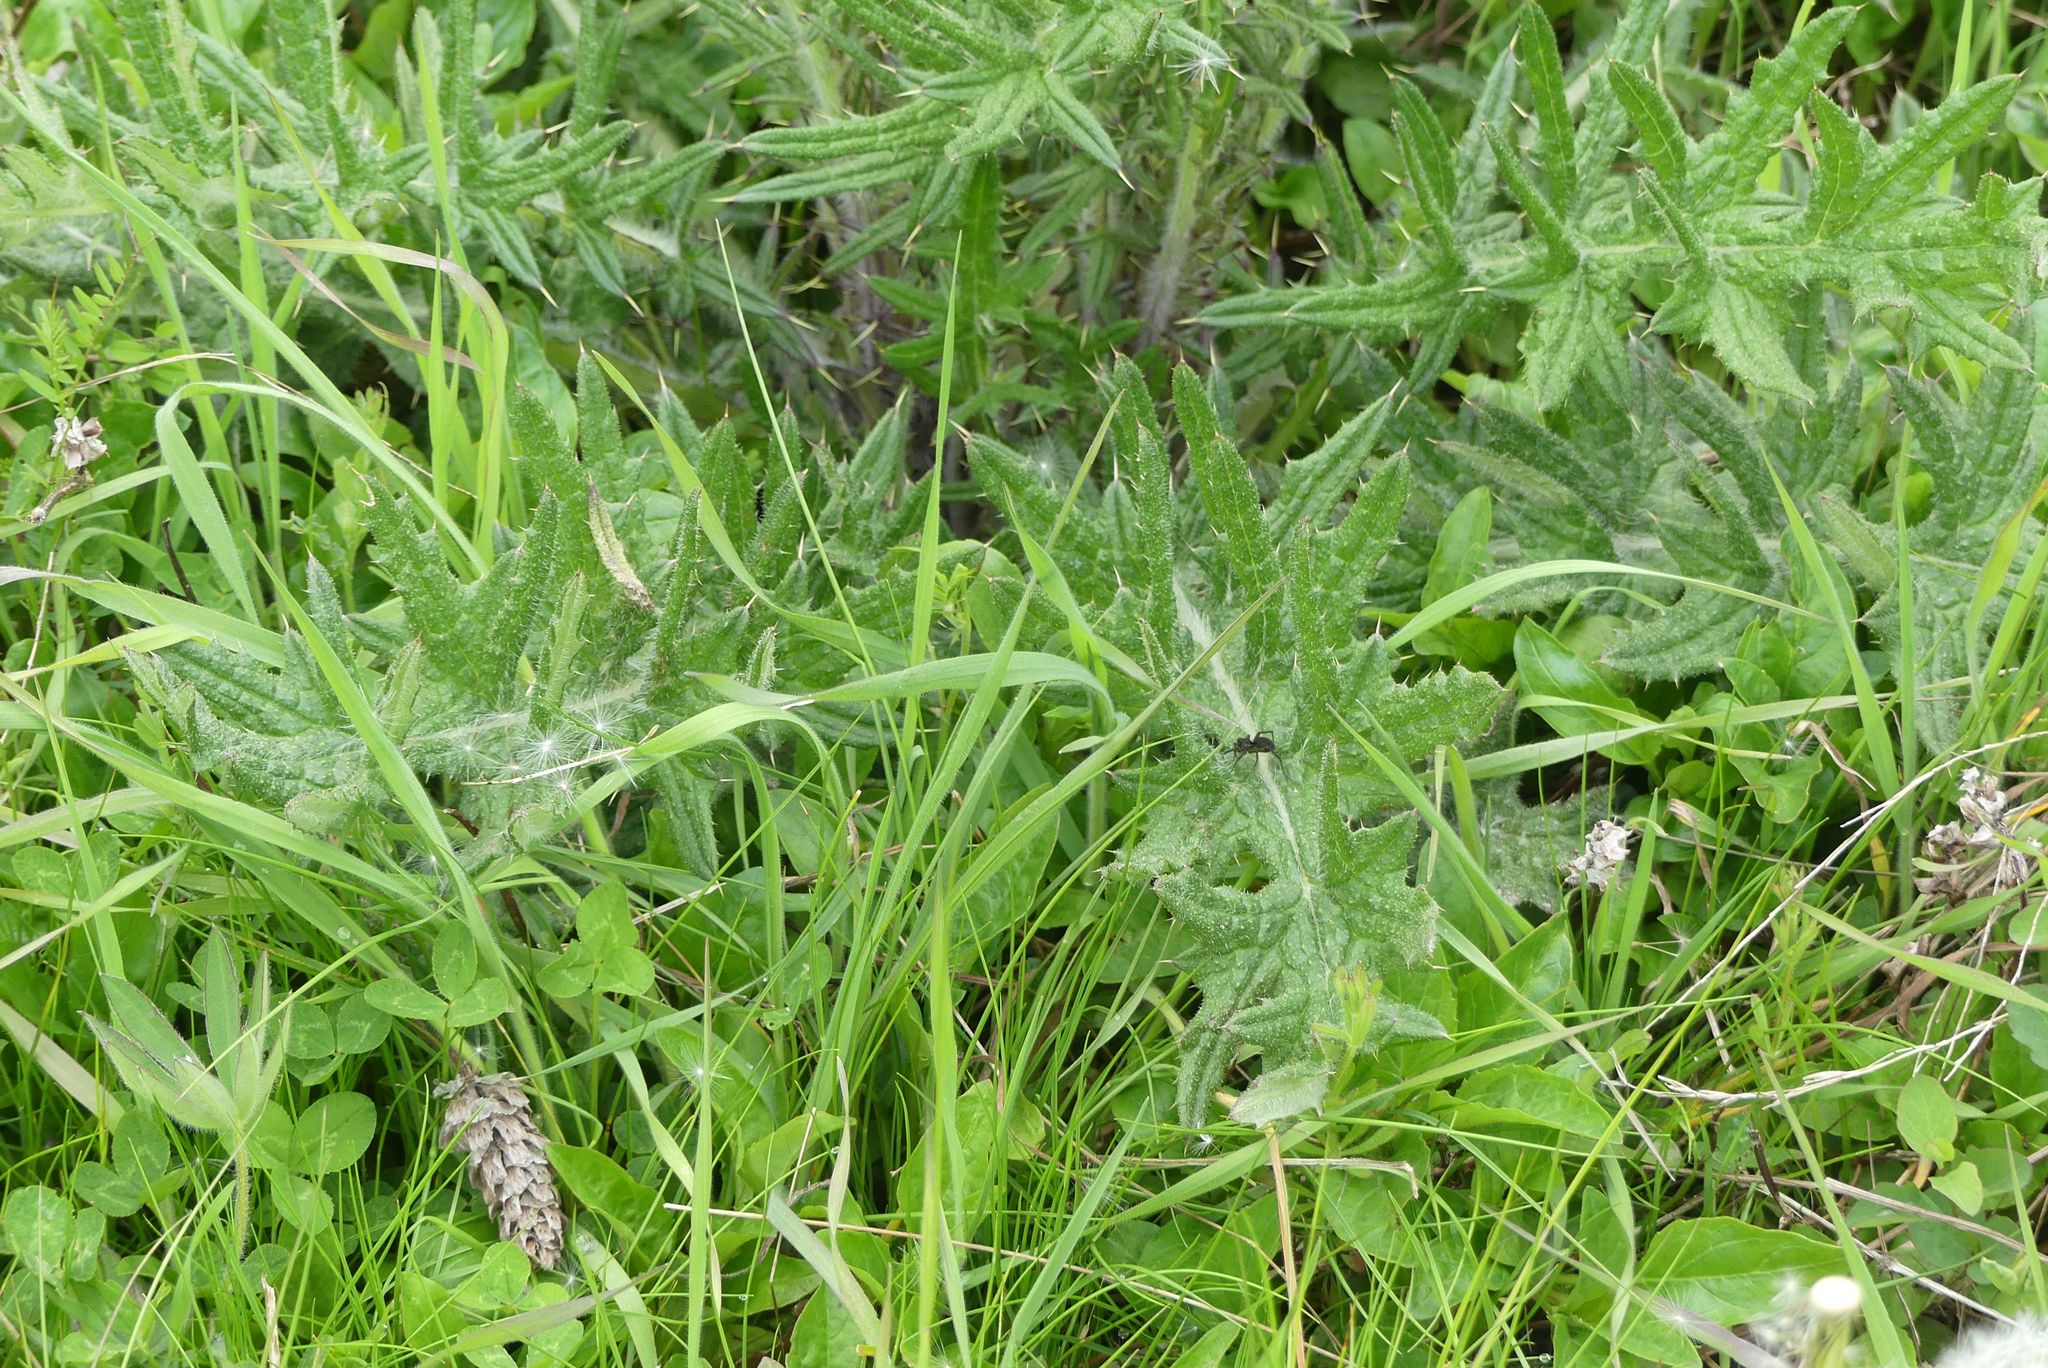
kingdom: Plantae
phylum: Tracheophyta
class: Magnoliopsida
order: Asterales
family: Asteraceae
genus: Cirsium
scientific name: Cirsium vulgare
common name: Bull thistle
